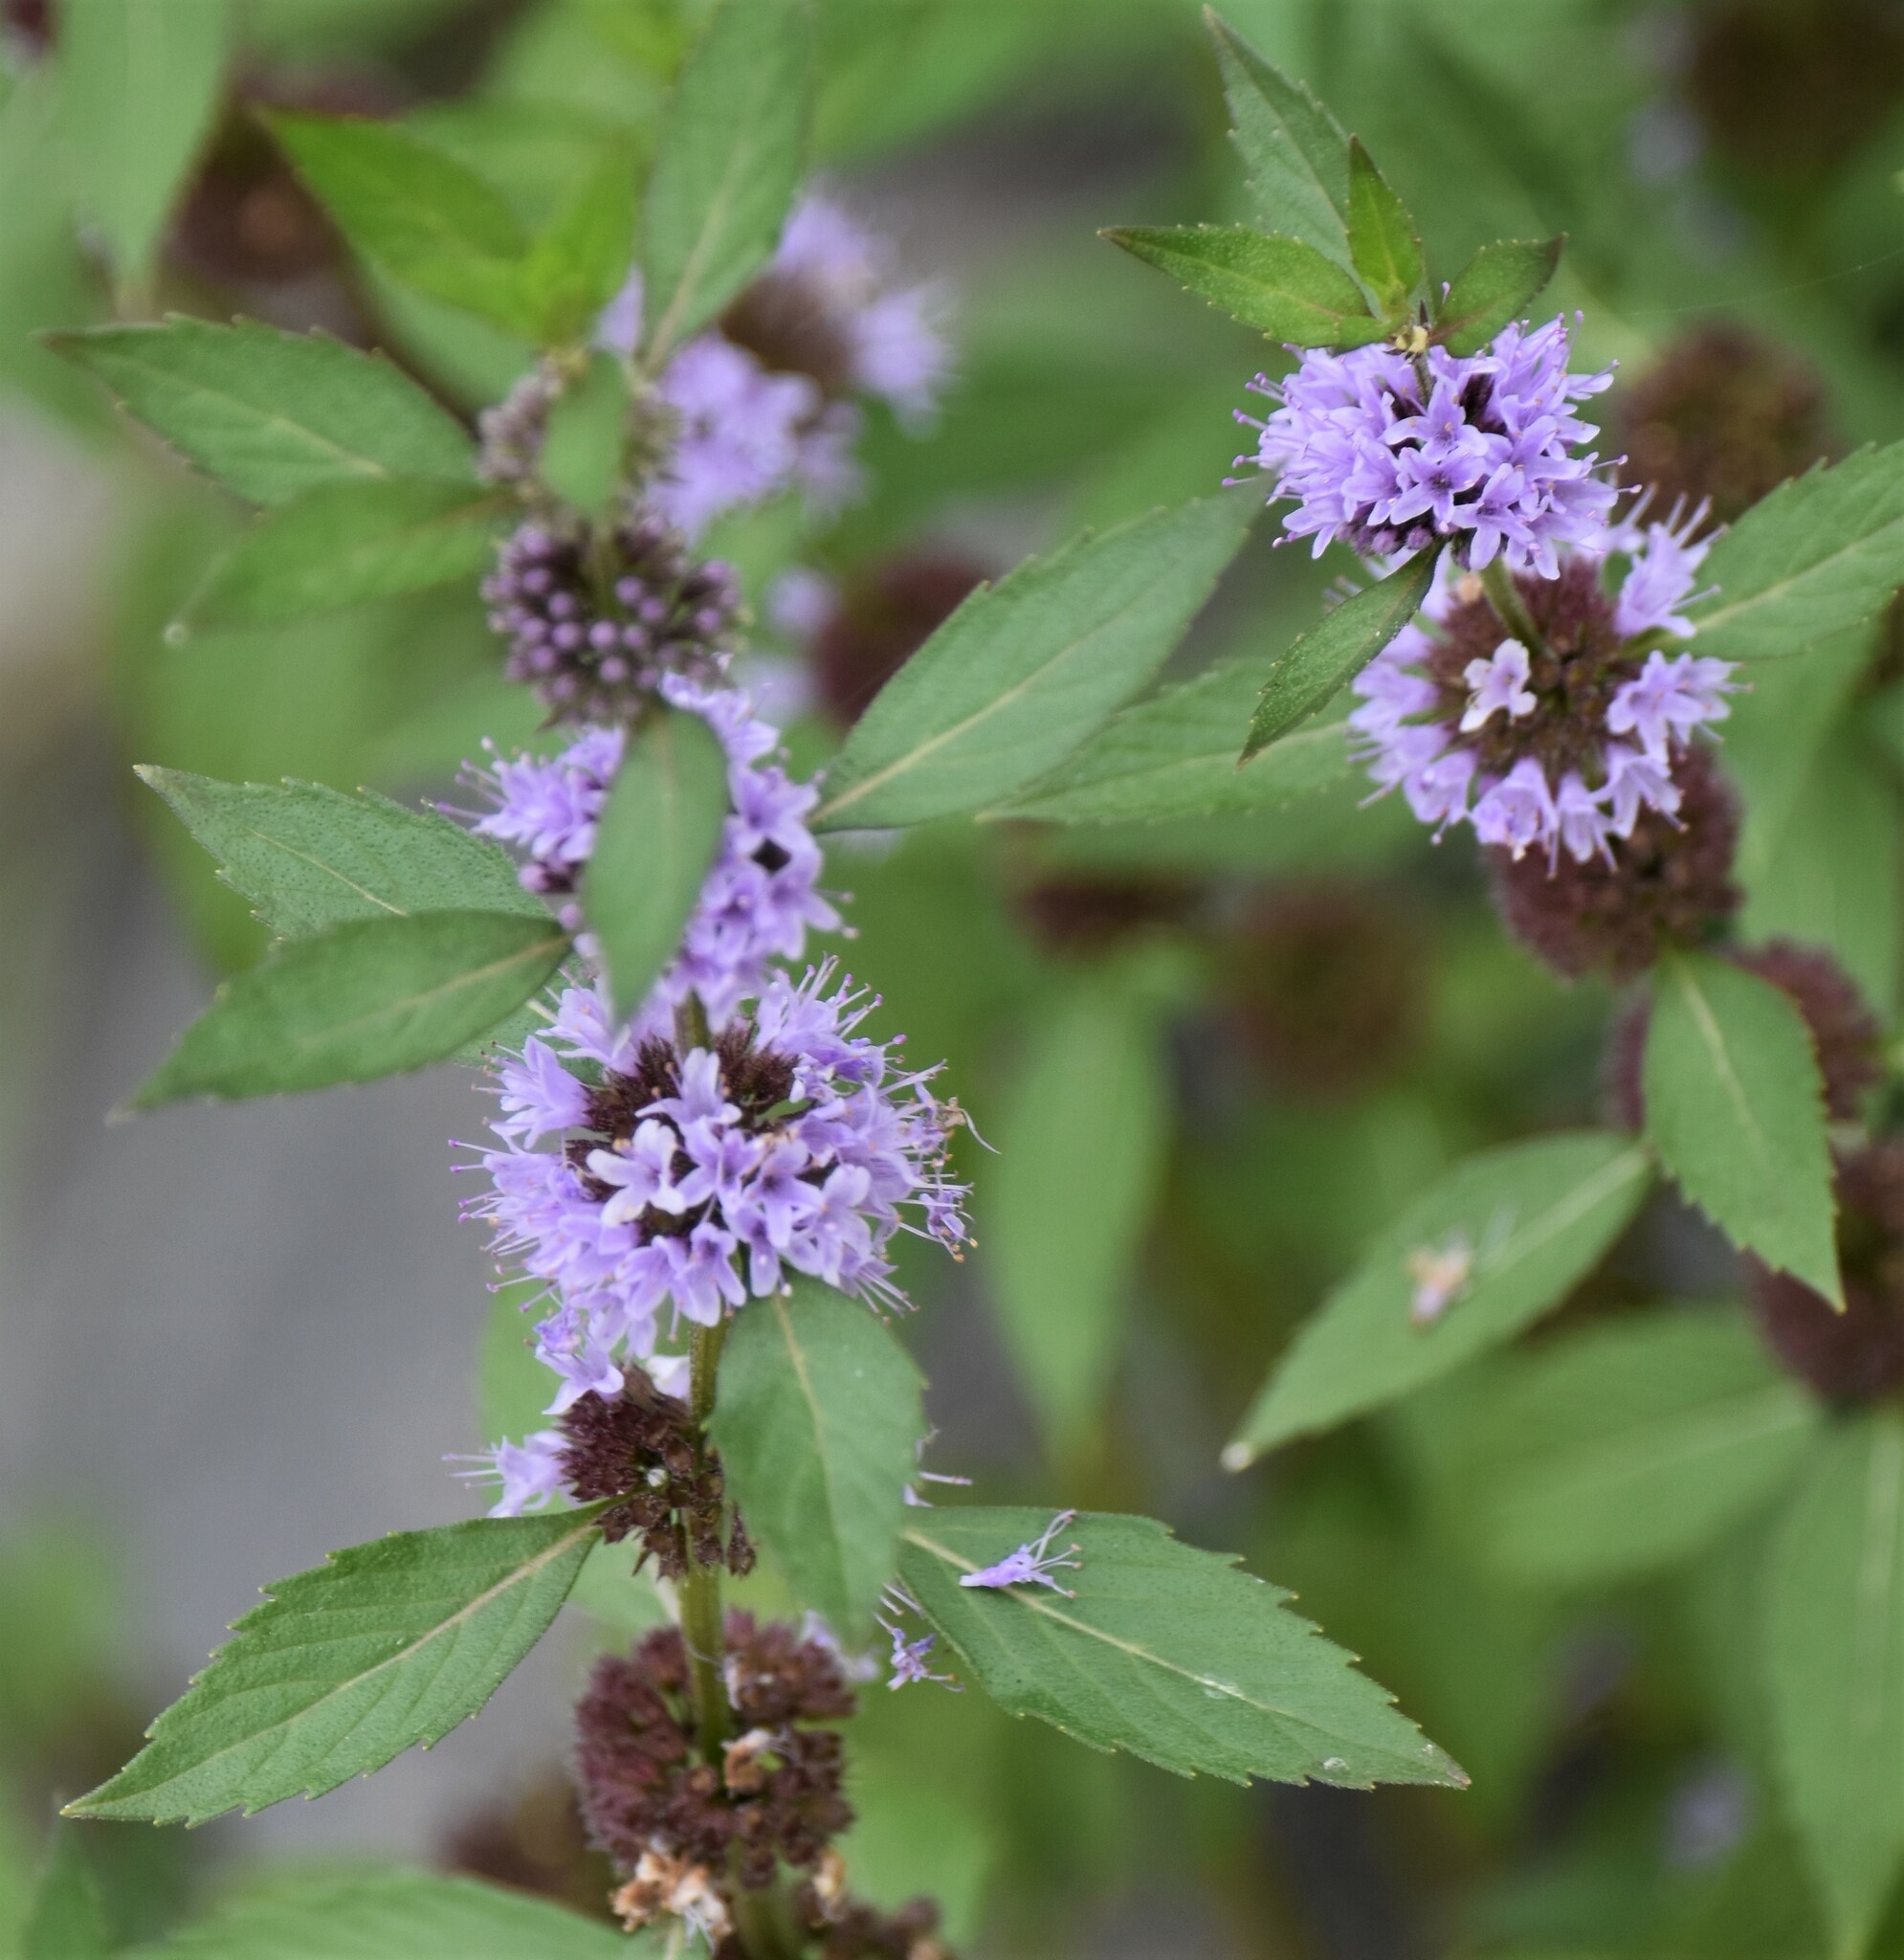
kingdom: Plantae
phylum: Tracheophyta
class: Magnoliopsida
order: Lamiales
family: Lamiaceae
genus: Mentha
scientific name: Mentha canadensis
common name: American corn mint
